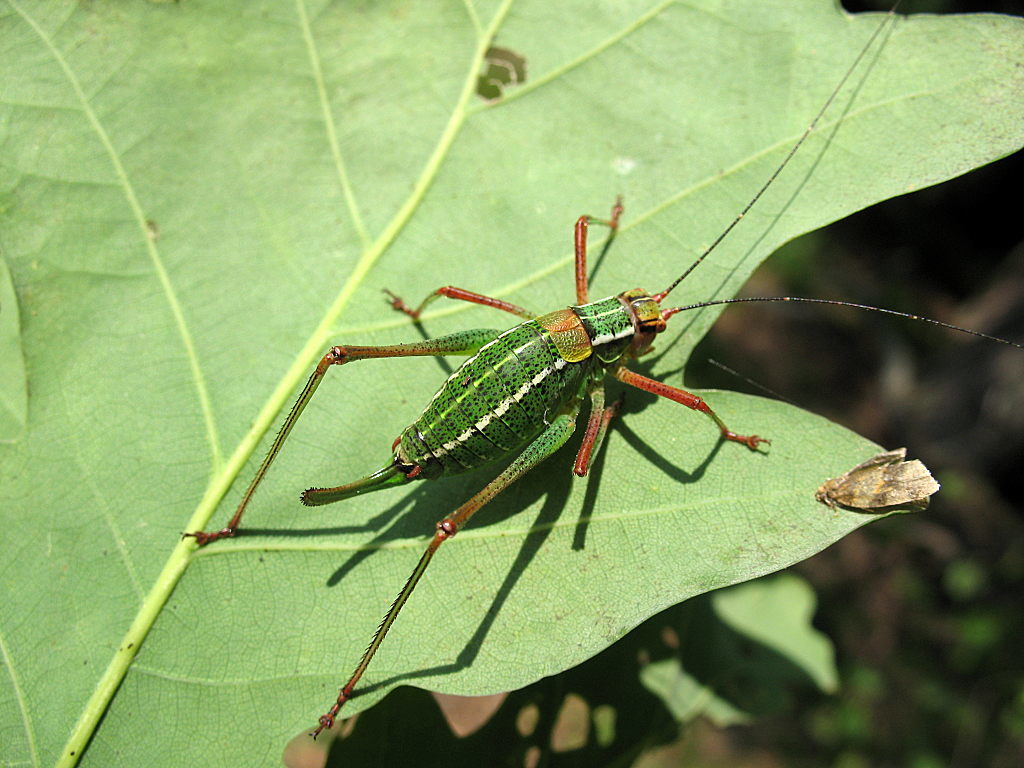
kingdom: Animalia
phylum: Arthropoda
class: Insecta
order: Orthoptera
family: Tettigoniidae
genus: Barbitistes
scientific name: Barbitistes constrictus
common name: Eastern saw-tailed bush cricket
